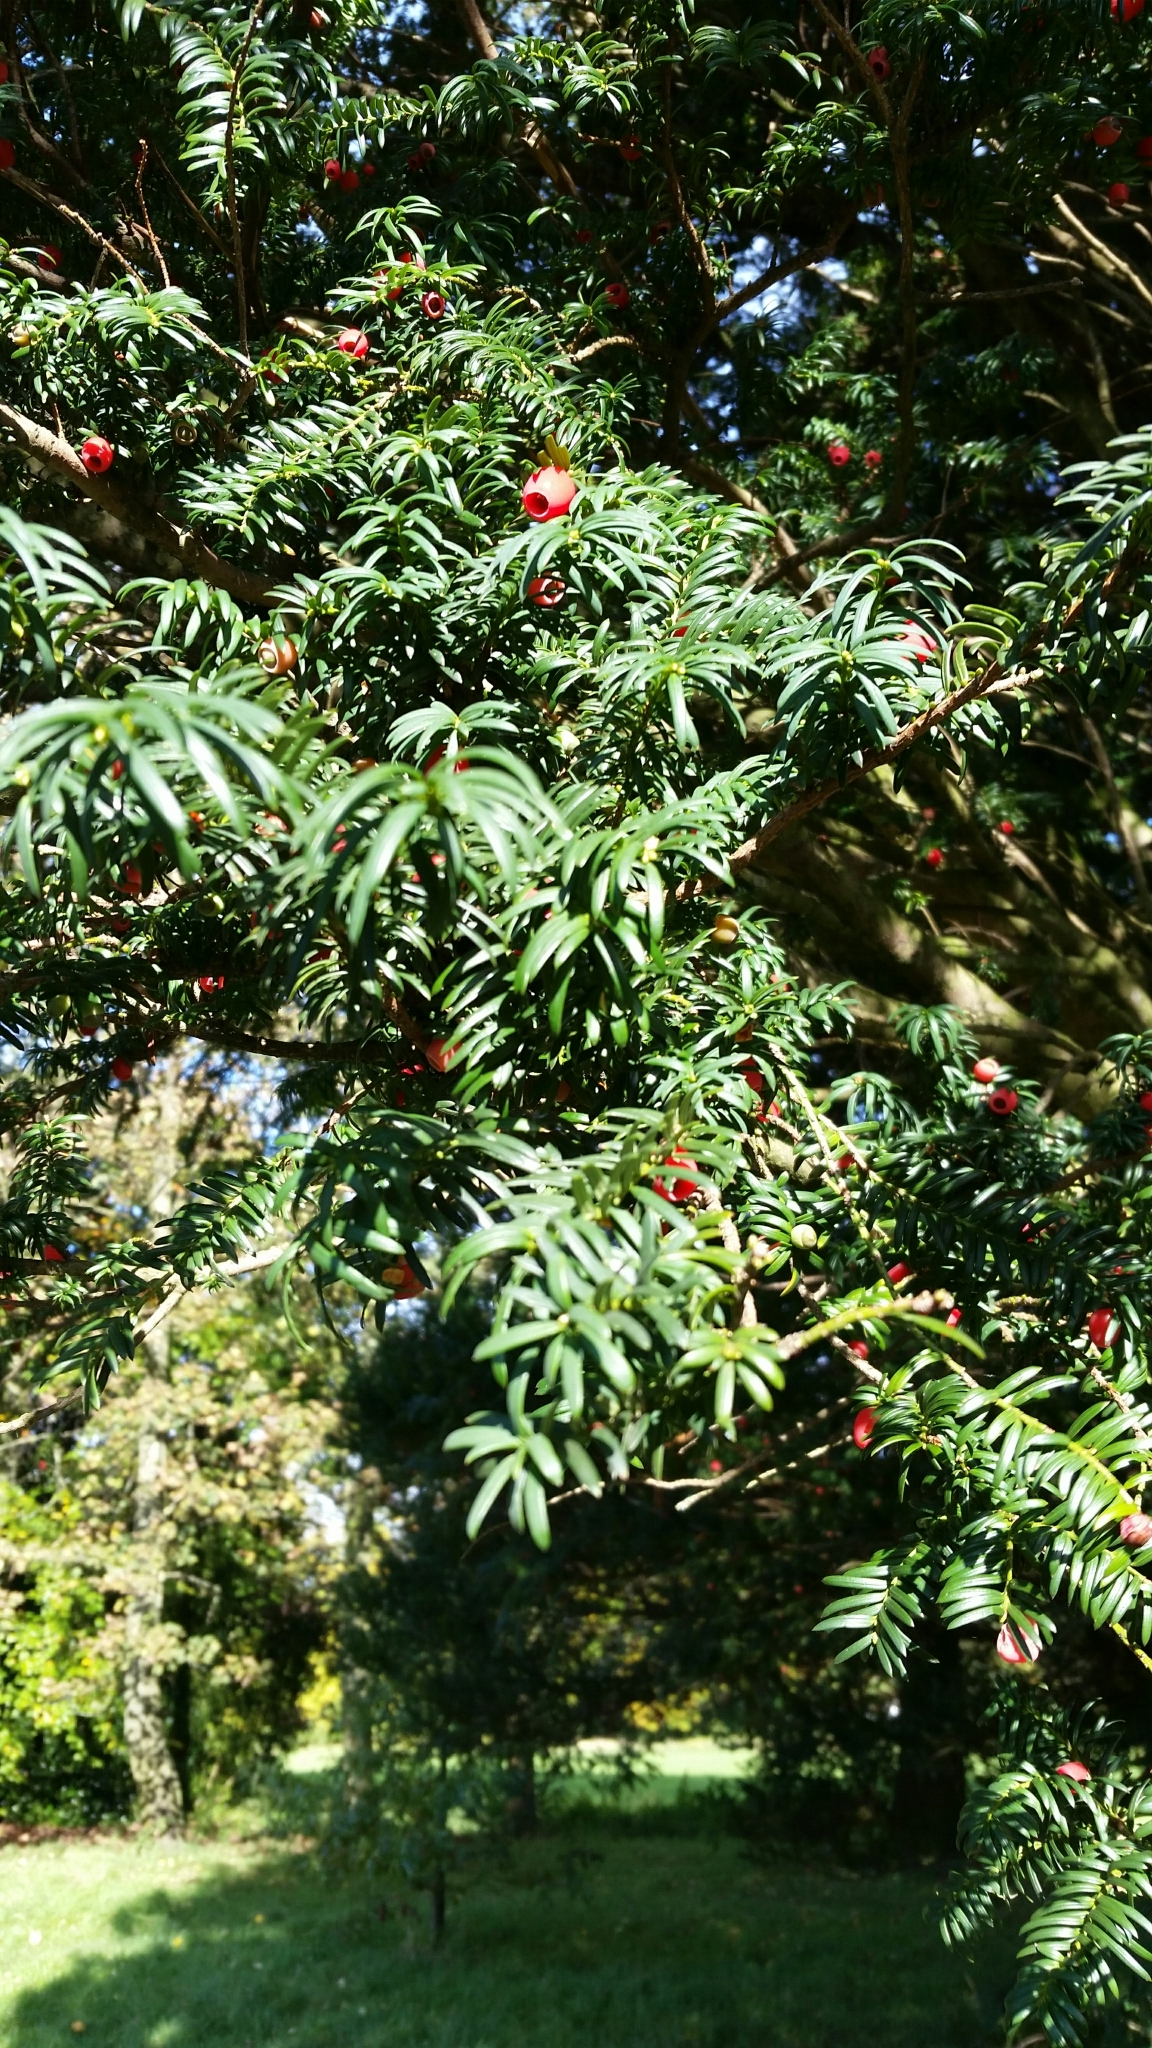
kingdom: Plantae
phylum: Tracheophyta
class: Pinopsida
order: Pinales
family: Taxaceae
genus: Taxus
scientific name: Taxus baccata
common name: Yew
